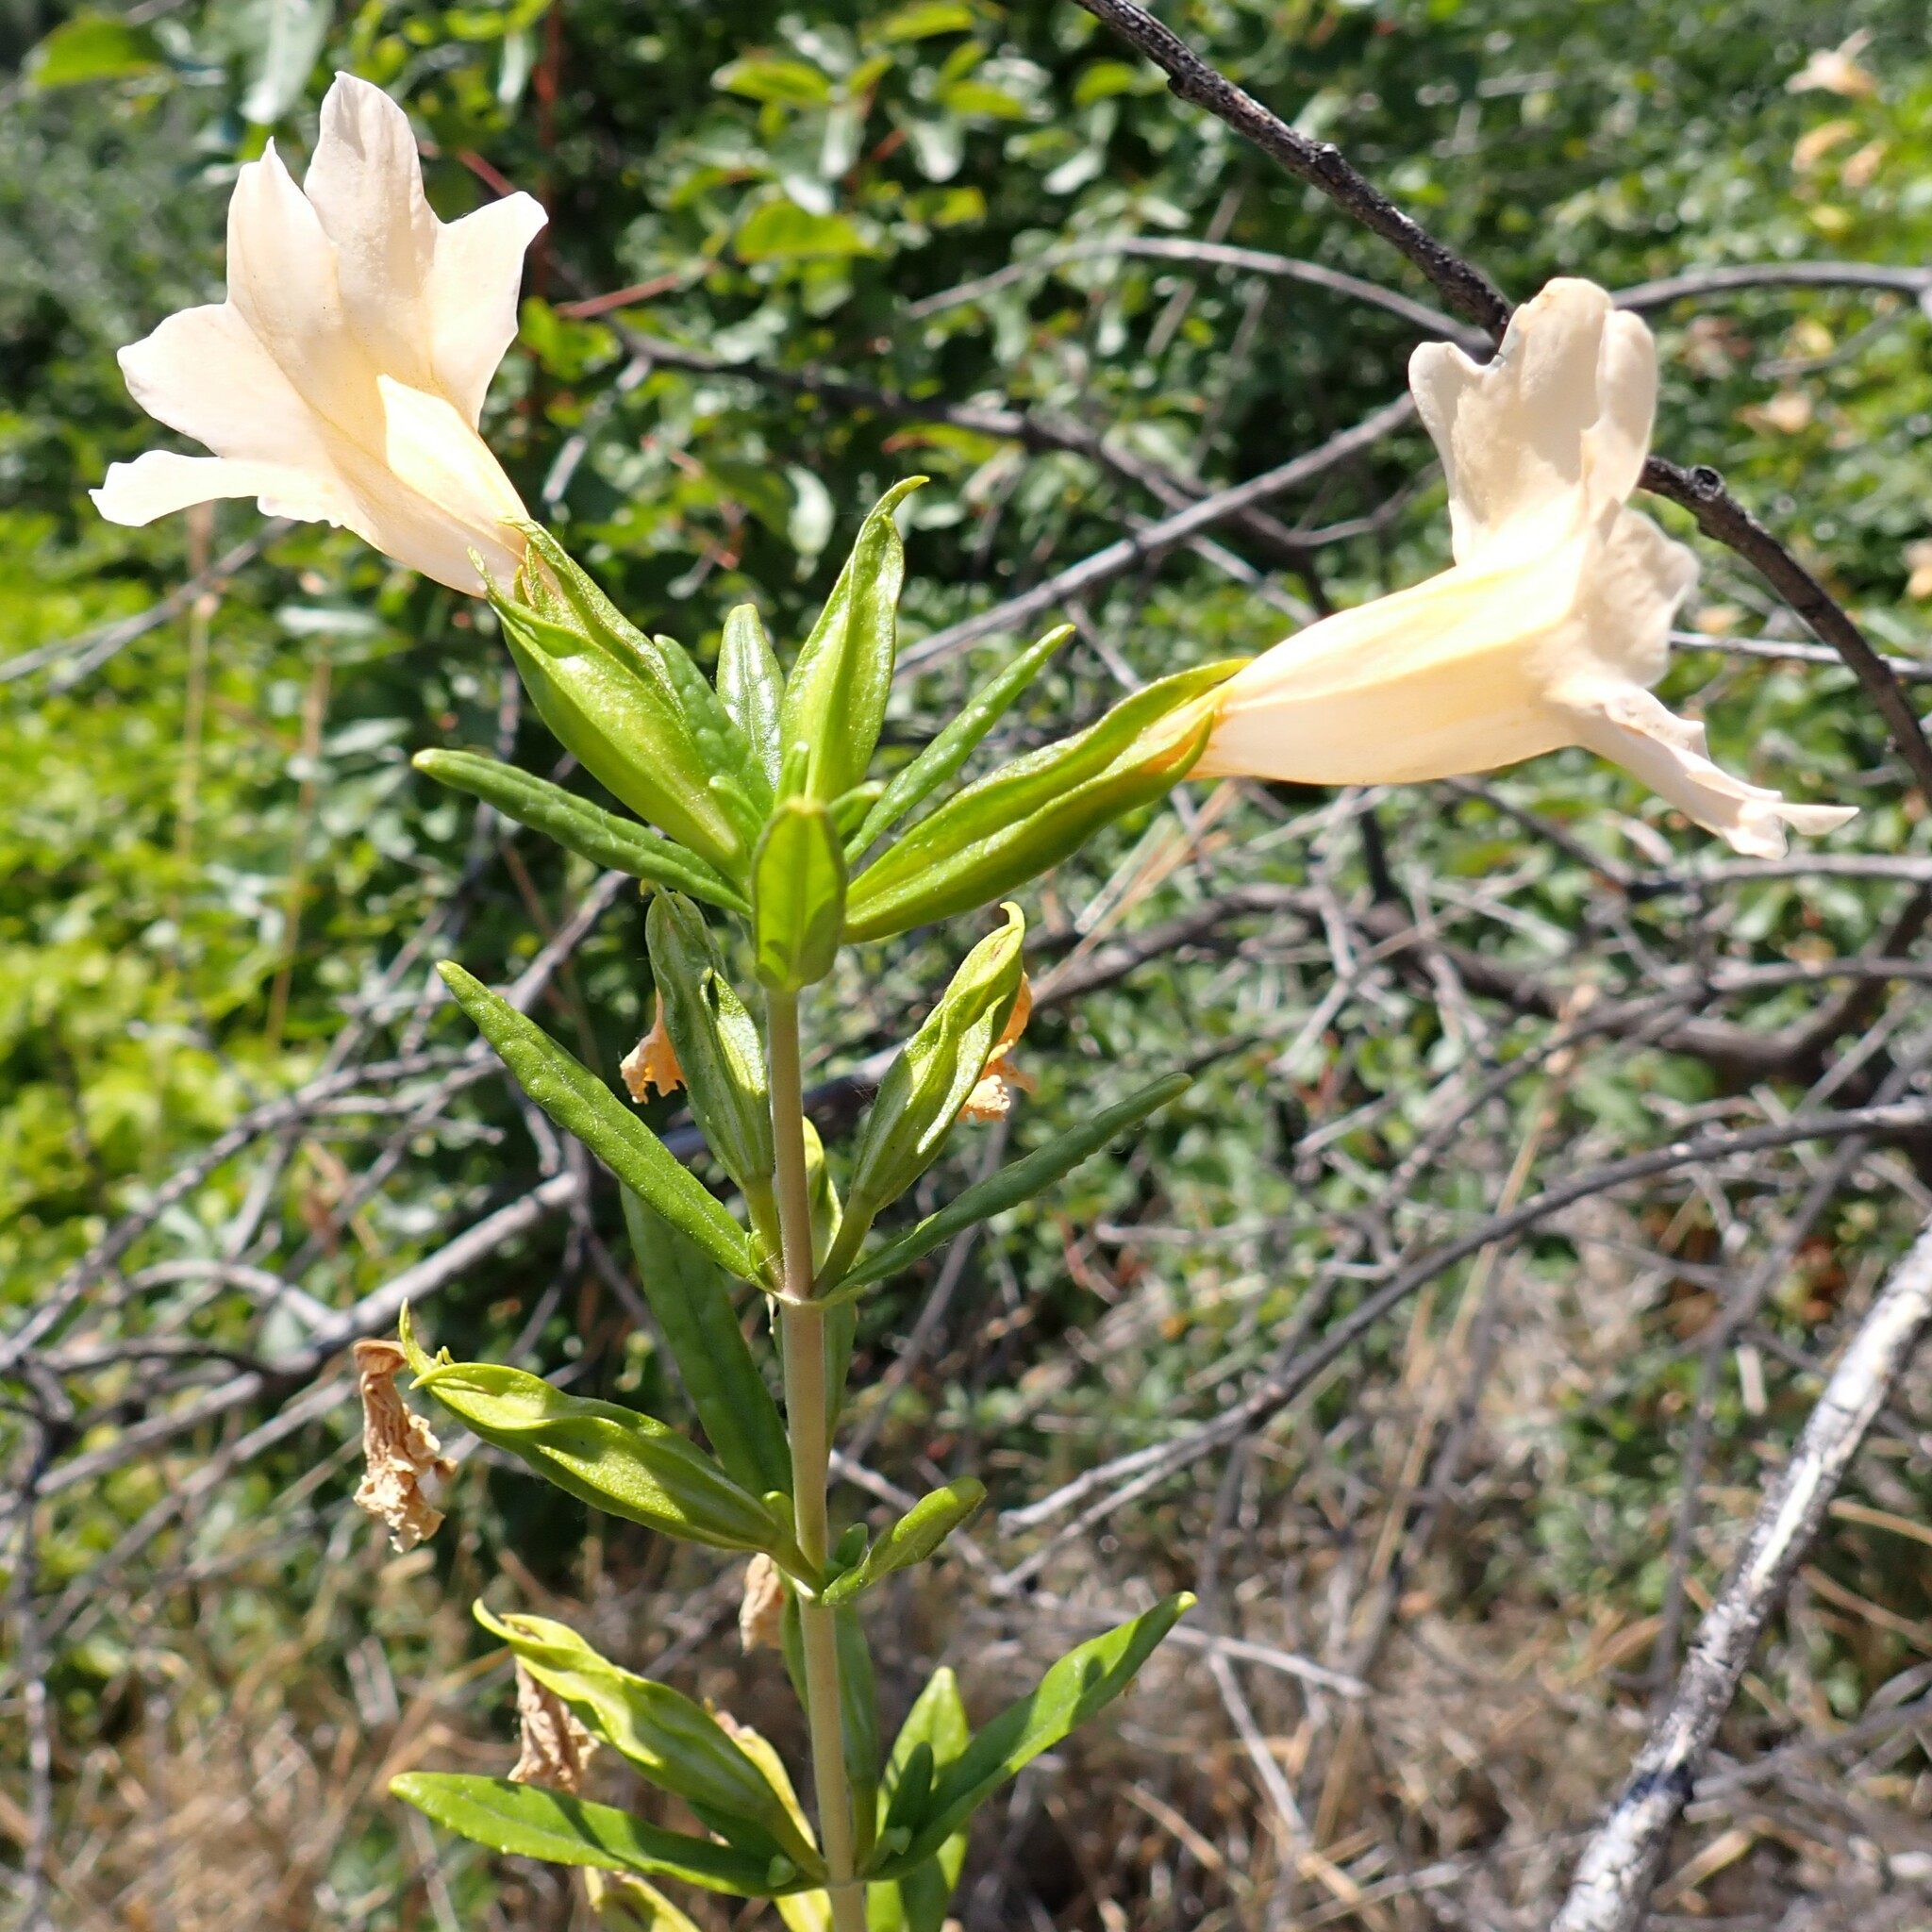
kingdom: Plantae
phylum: Tracheophyta
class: Magnoliopsida
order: Lamiales
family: Phrymaceae
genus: Diplacus
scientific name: Diplacus grandiflorus
